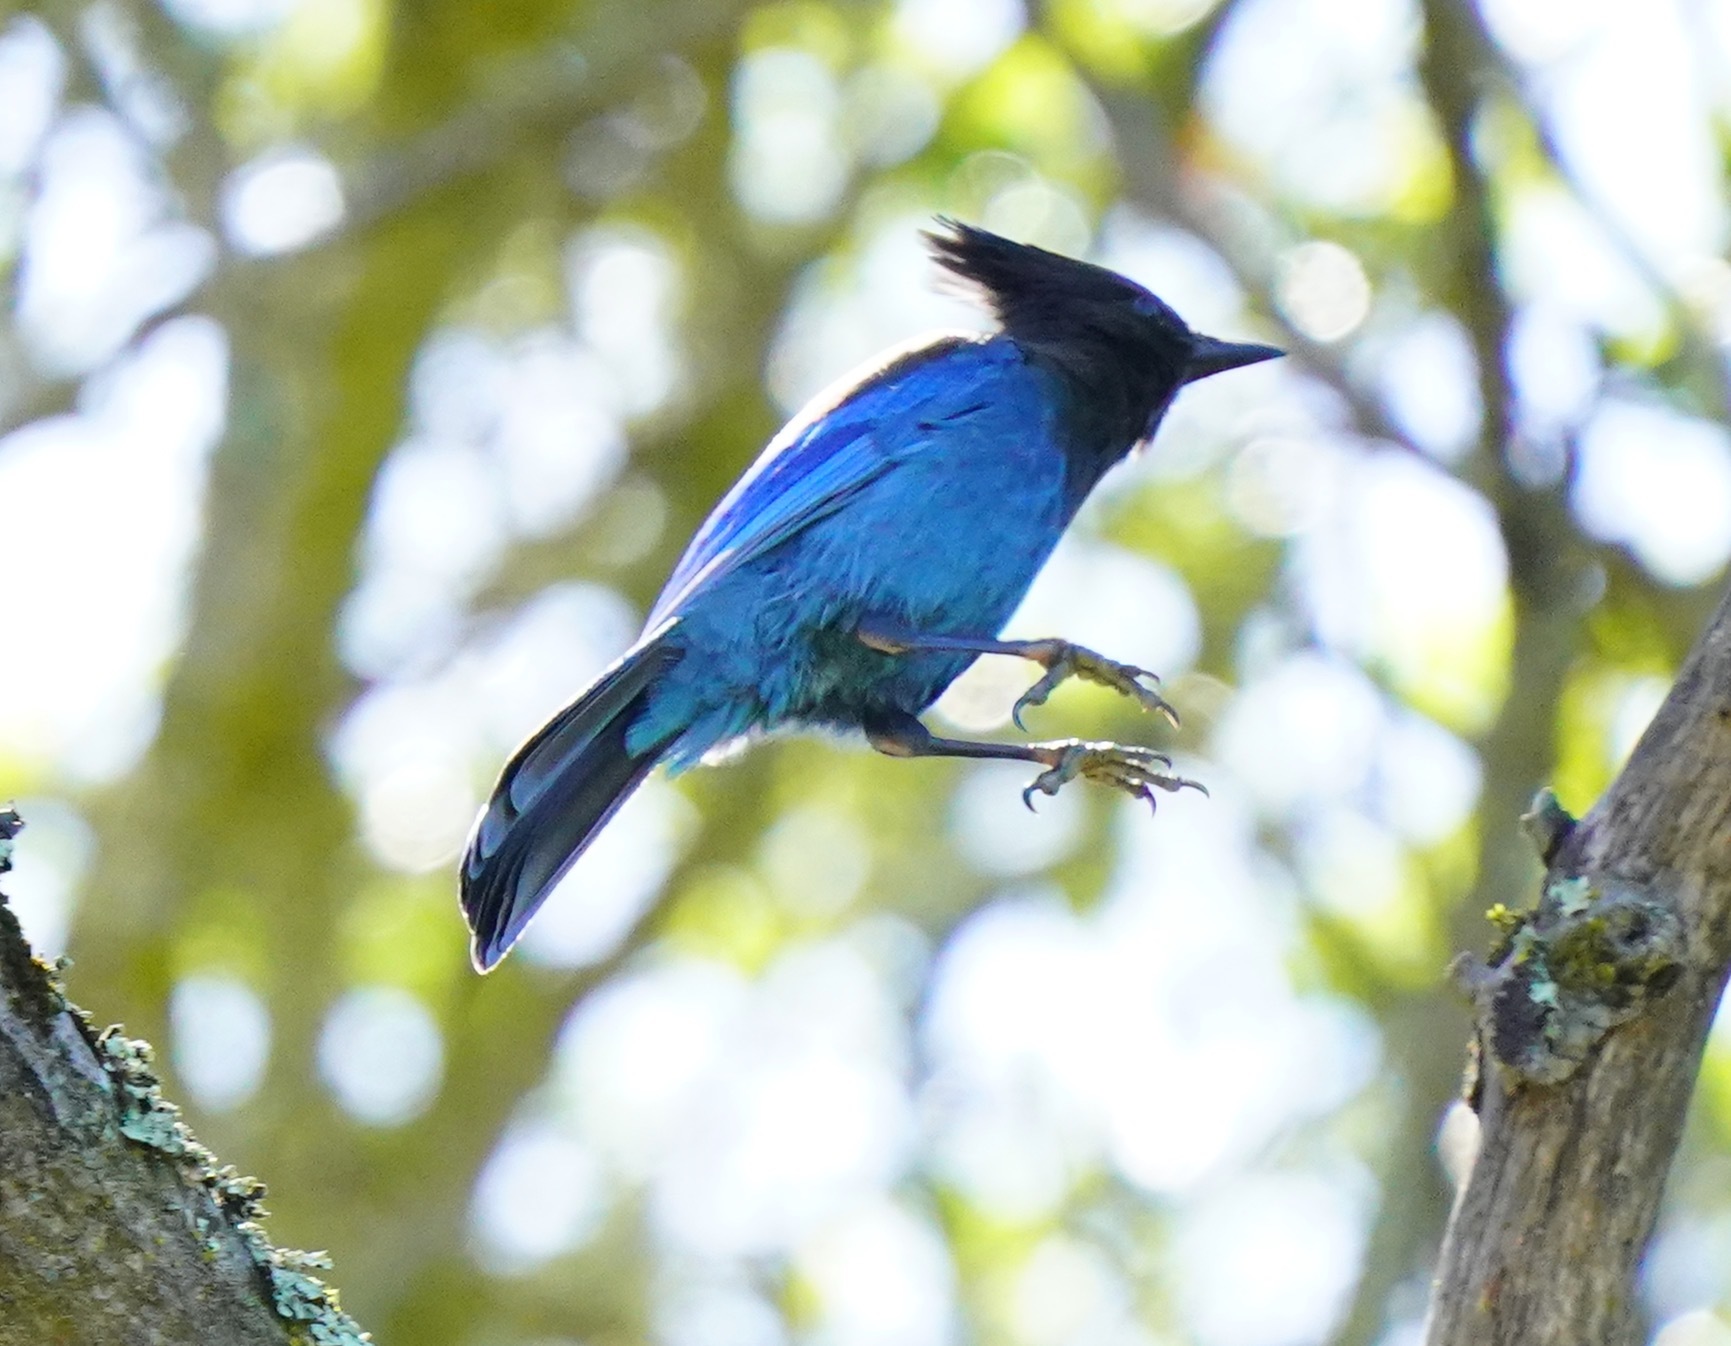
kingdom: Animalia
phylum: Chordata
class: Aves
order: Passeriformes
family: Corvidae
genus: Cyanocitta
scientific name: Cyanocitta stelleri
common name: Steller's jay
